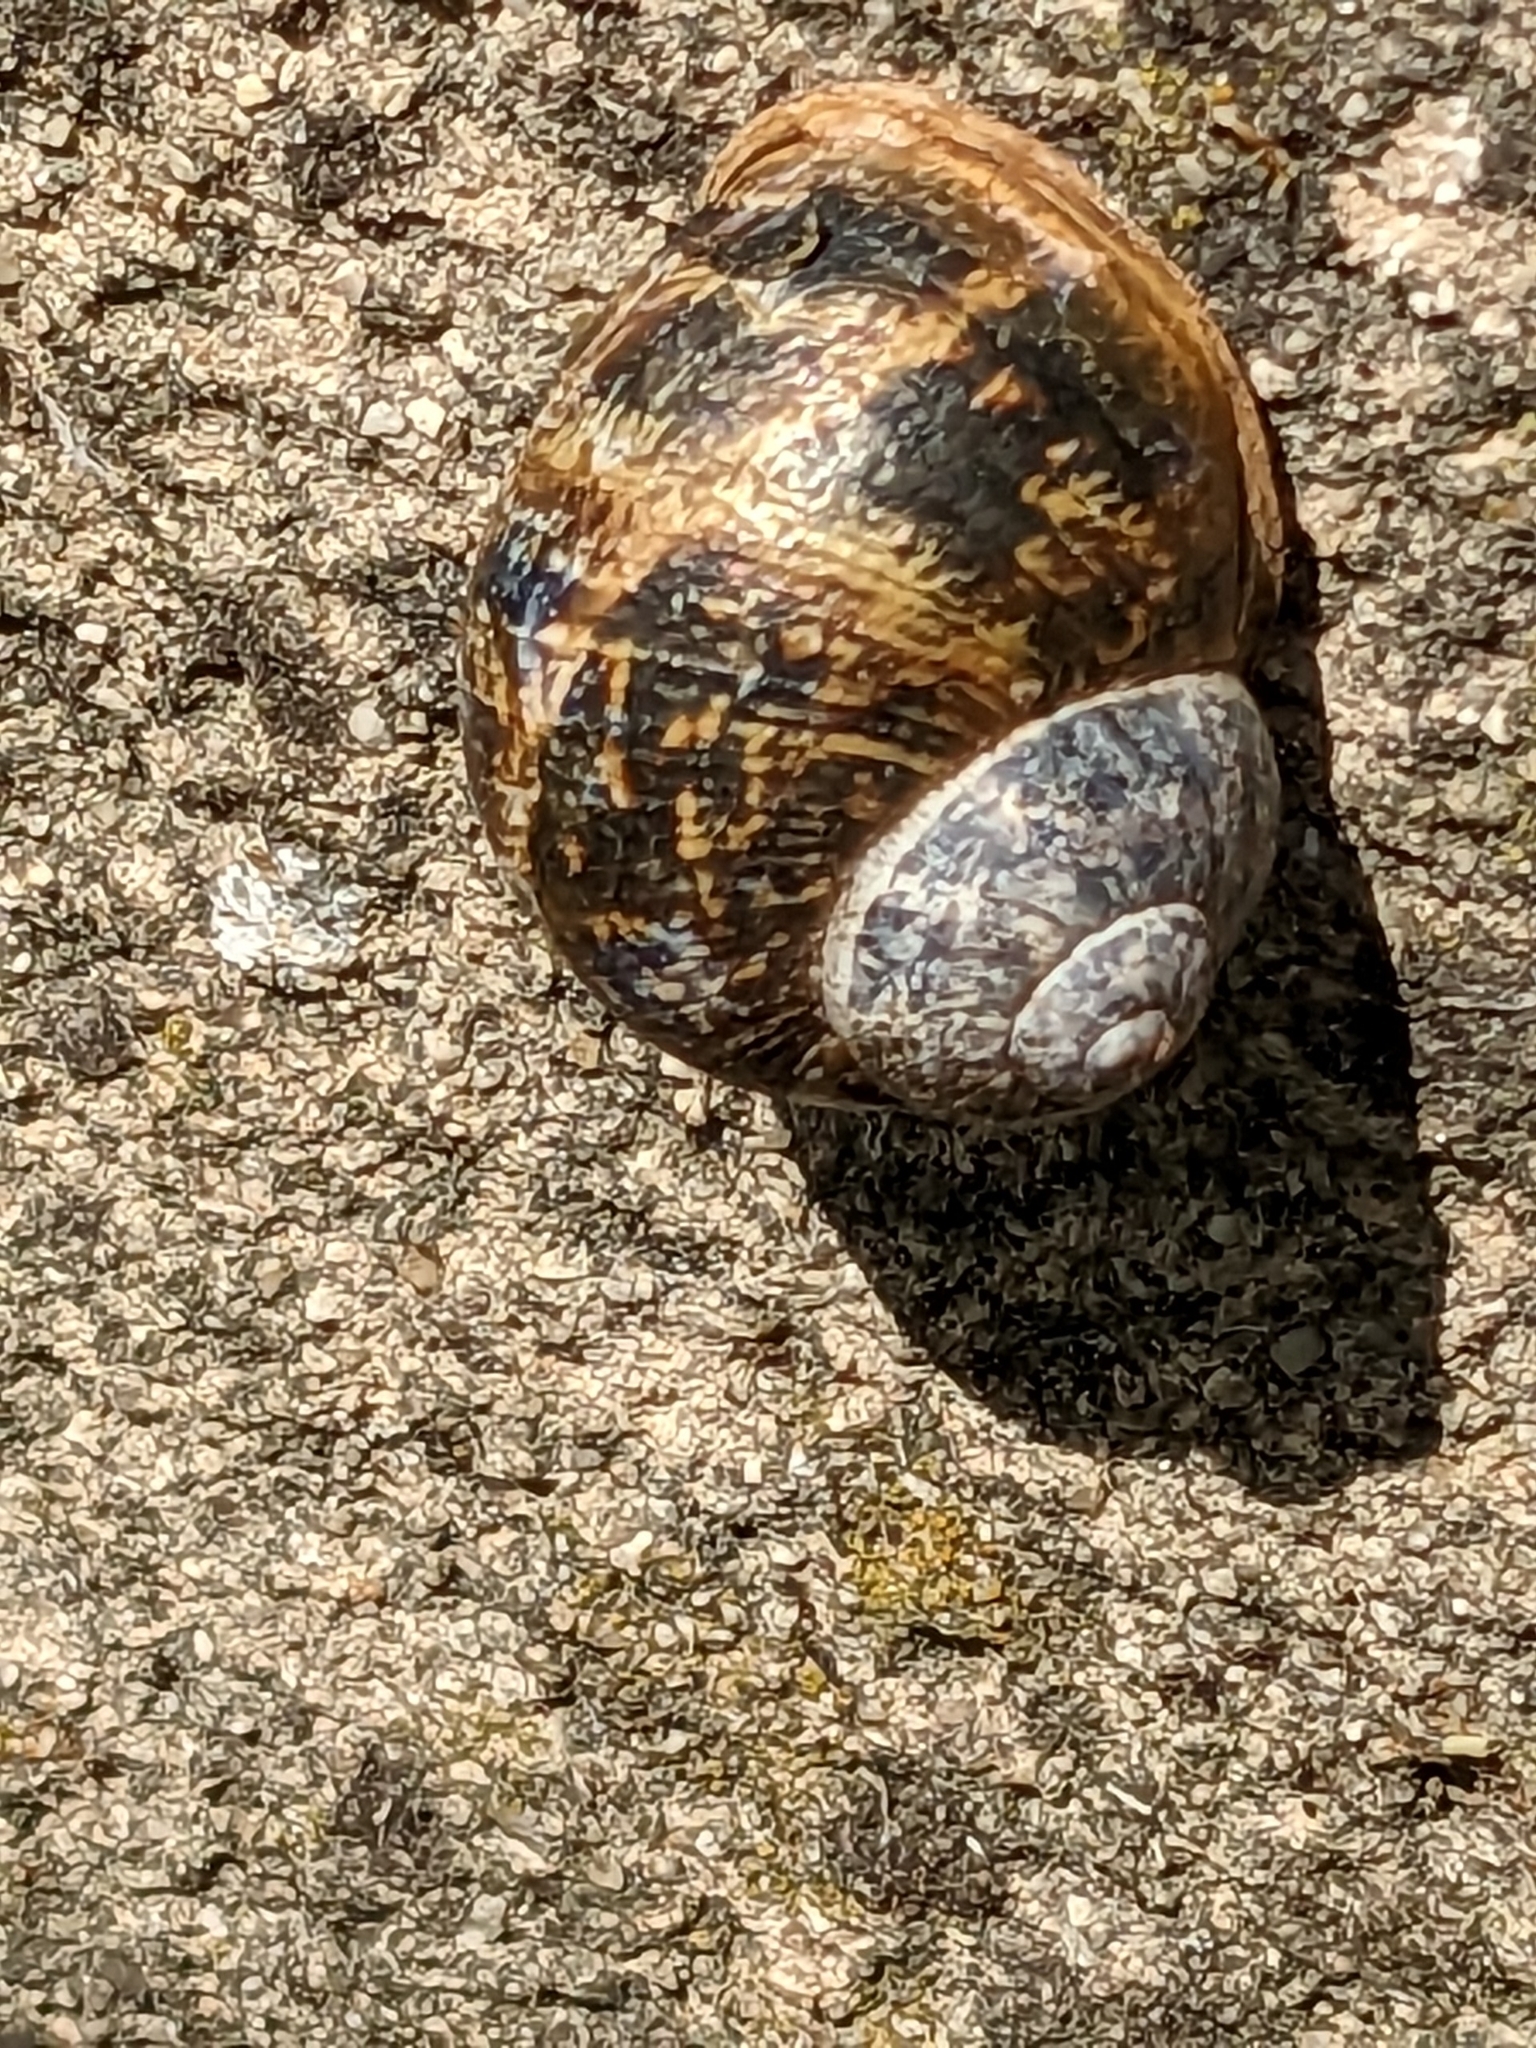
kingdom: Animalia
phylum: Mollusca
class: Gastropoda
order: Stylommatophora
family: Helicidae
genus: Cornu
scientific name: Cornu aspersum
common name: Brown garden snail
